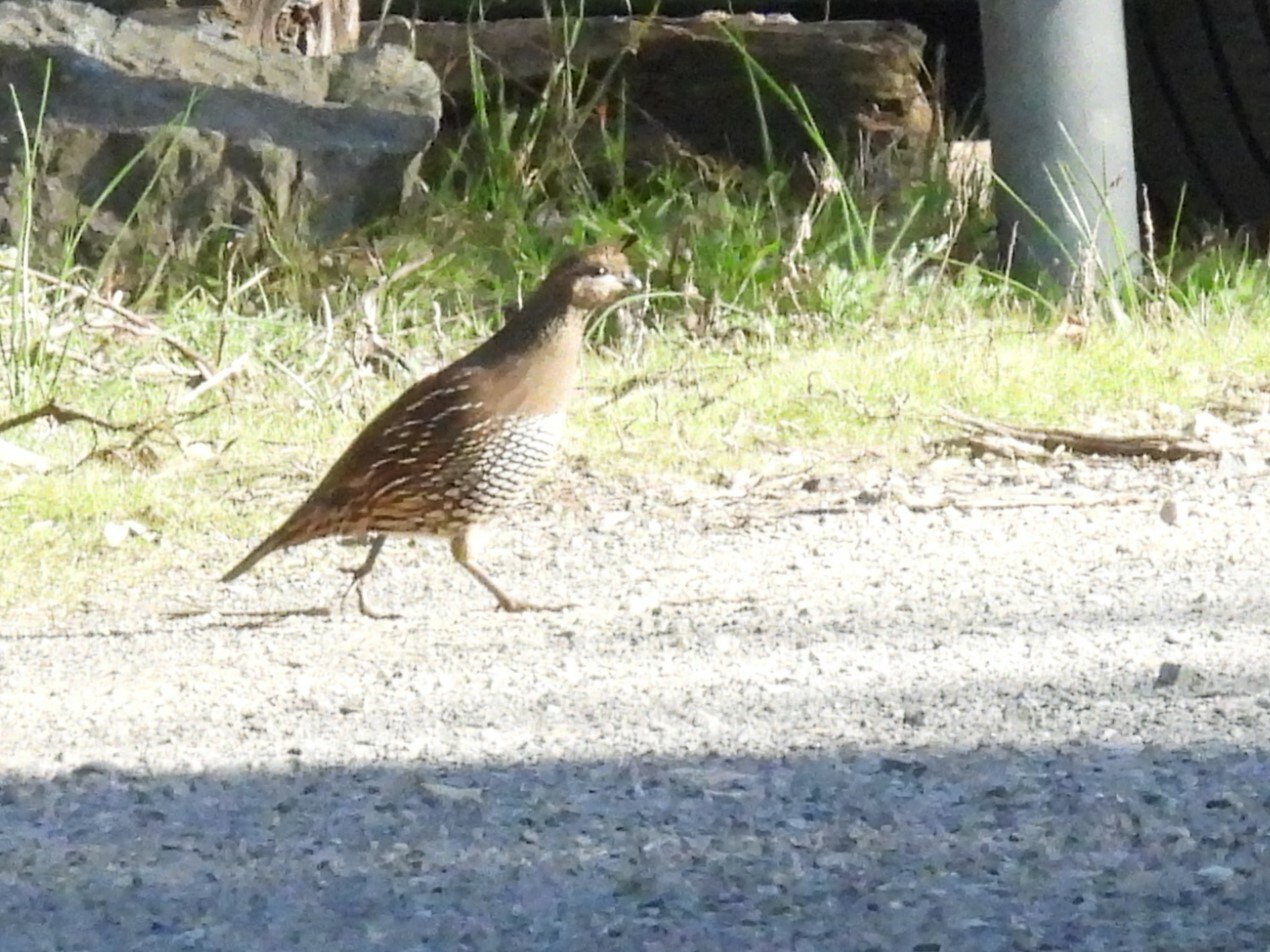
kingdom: Animalia
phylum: Chordata
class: Aves
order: Galliformes
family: Odontophoridae
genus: Callipepla
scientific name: Callipepla californica
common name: California quail
